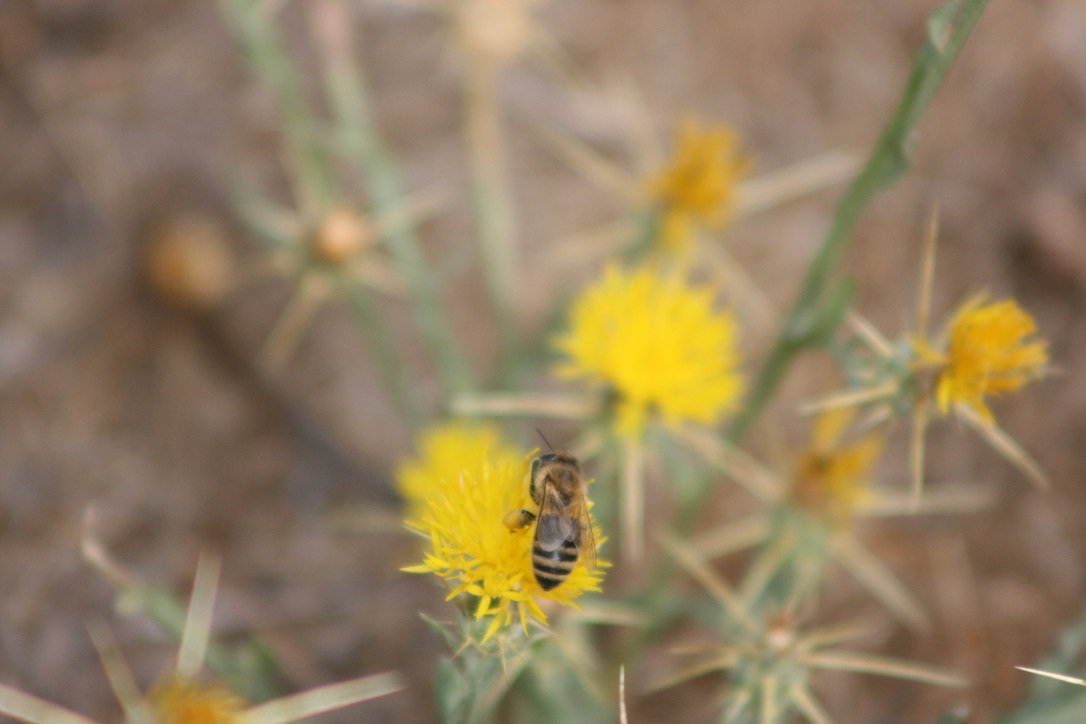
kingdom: Animalia
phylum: Arthropoda
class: Insecta
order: Hymenoptera
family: Apidae
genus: Apis
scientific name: Apis mellifera
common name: Honey bee
